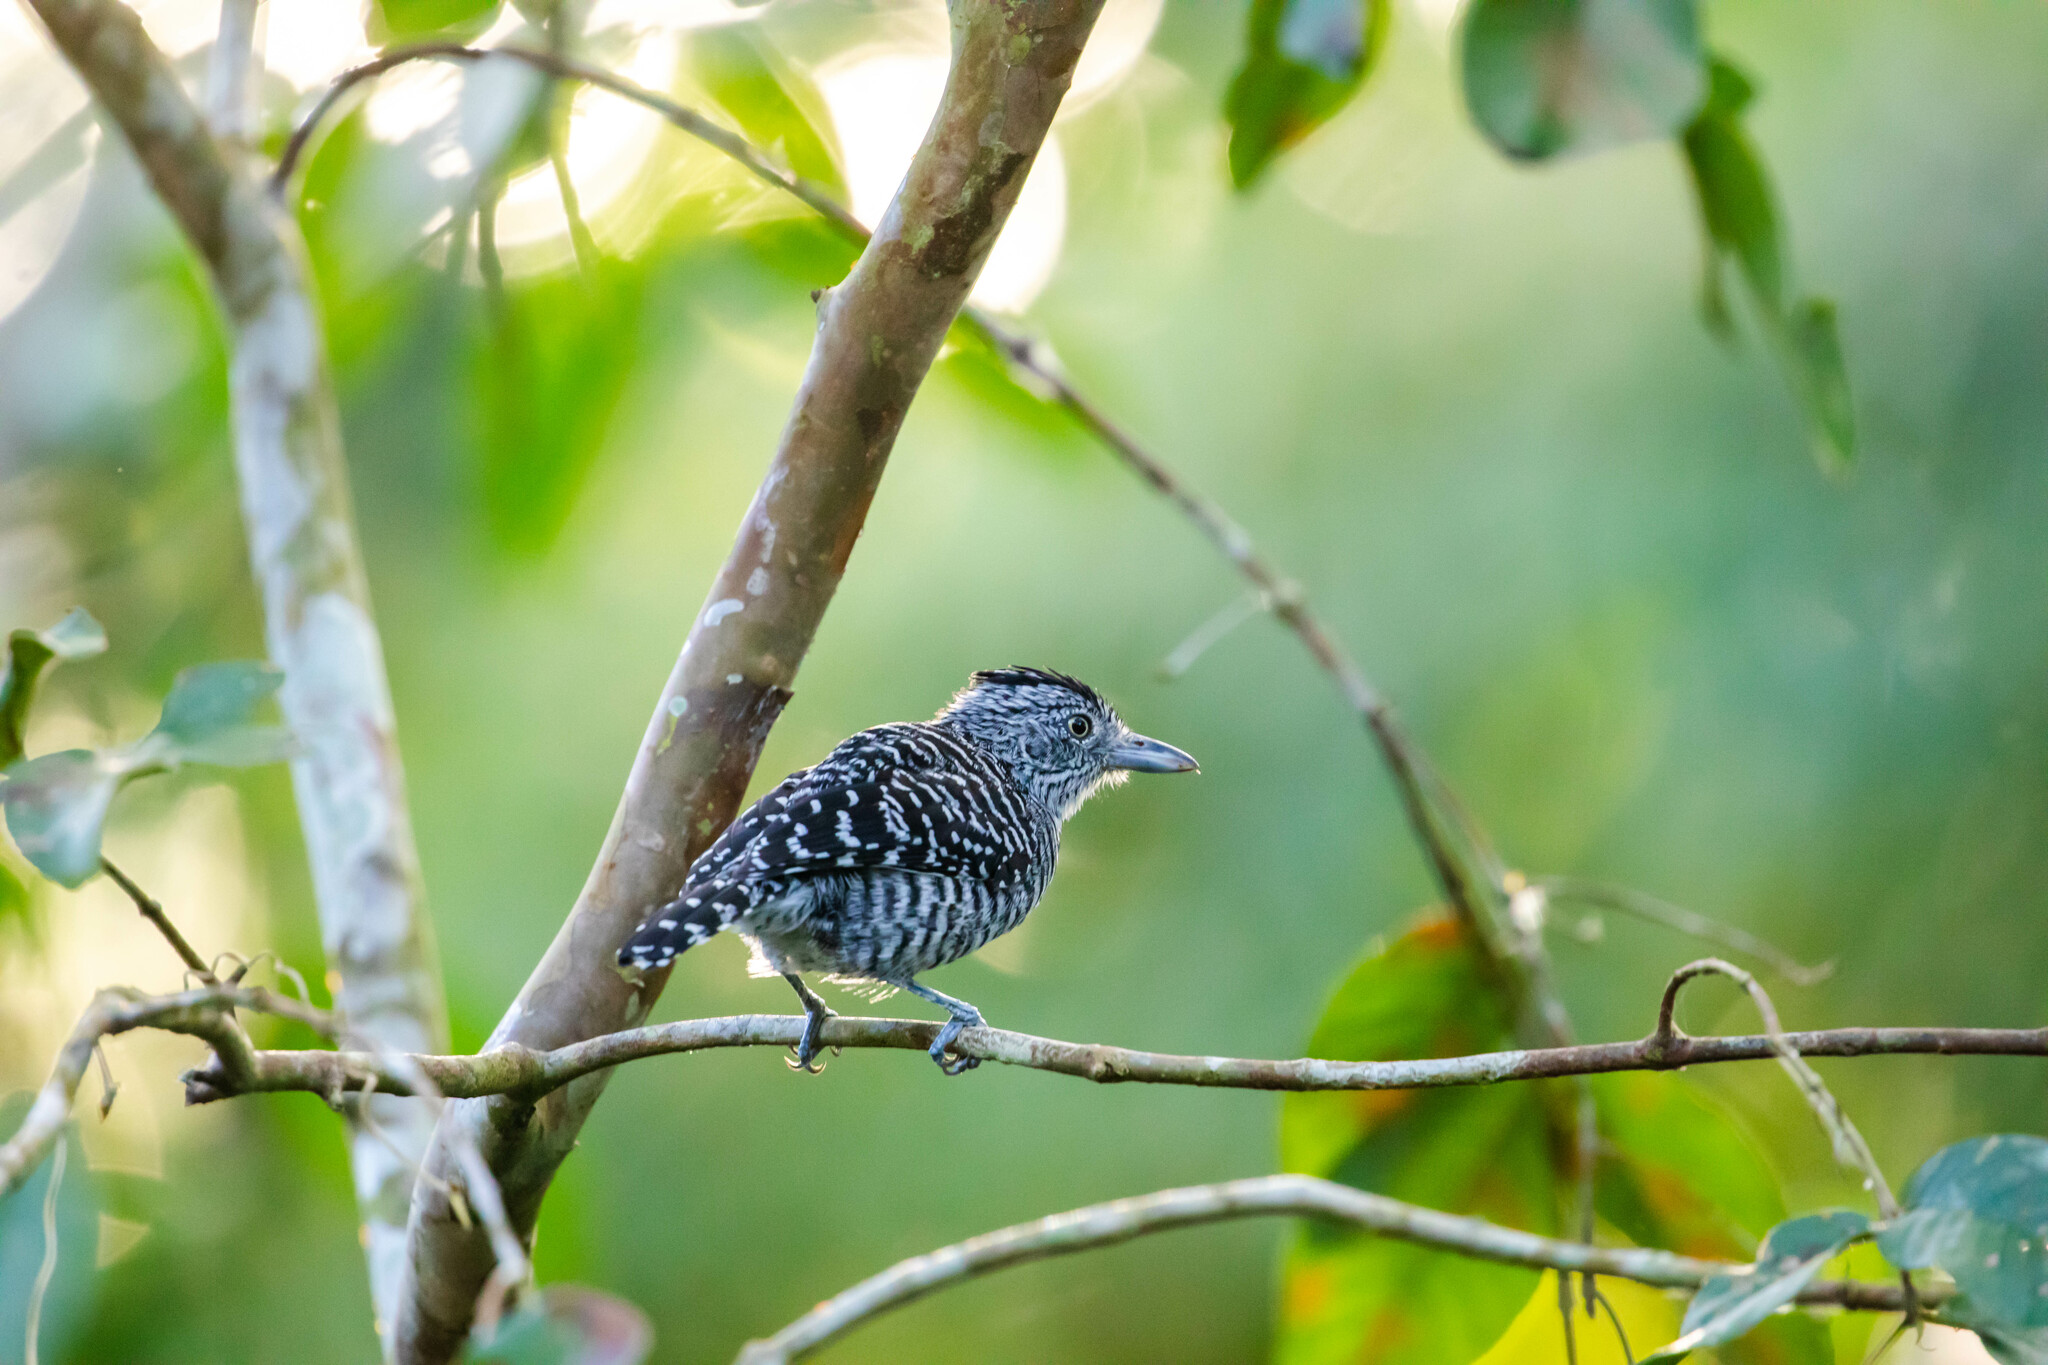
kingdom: Animalia
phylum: Chordata
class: Aves
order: Passeriformes
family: Thamnophilidae
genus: Thamnophilus
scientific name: Thamnophilus doliatus
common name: Barred antshrike
